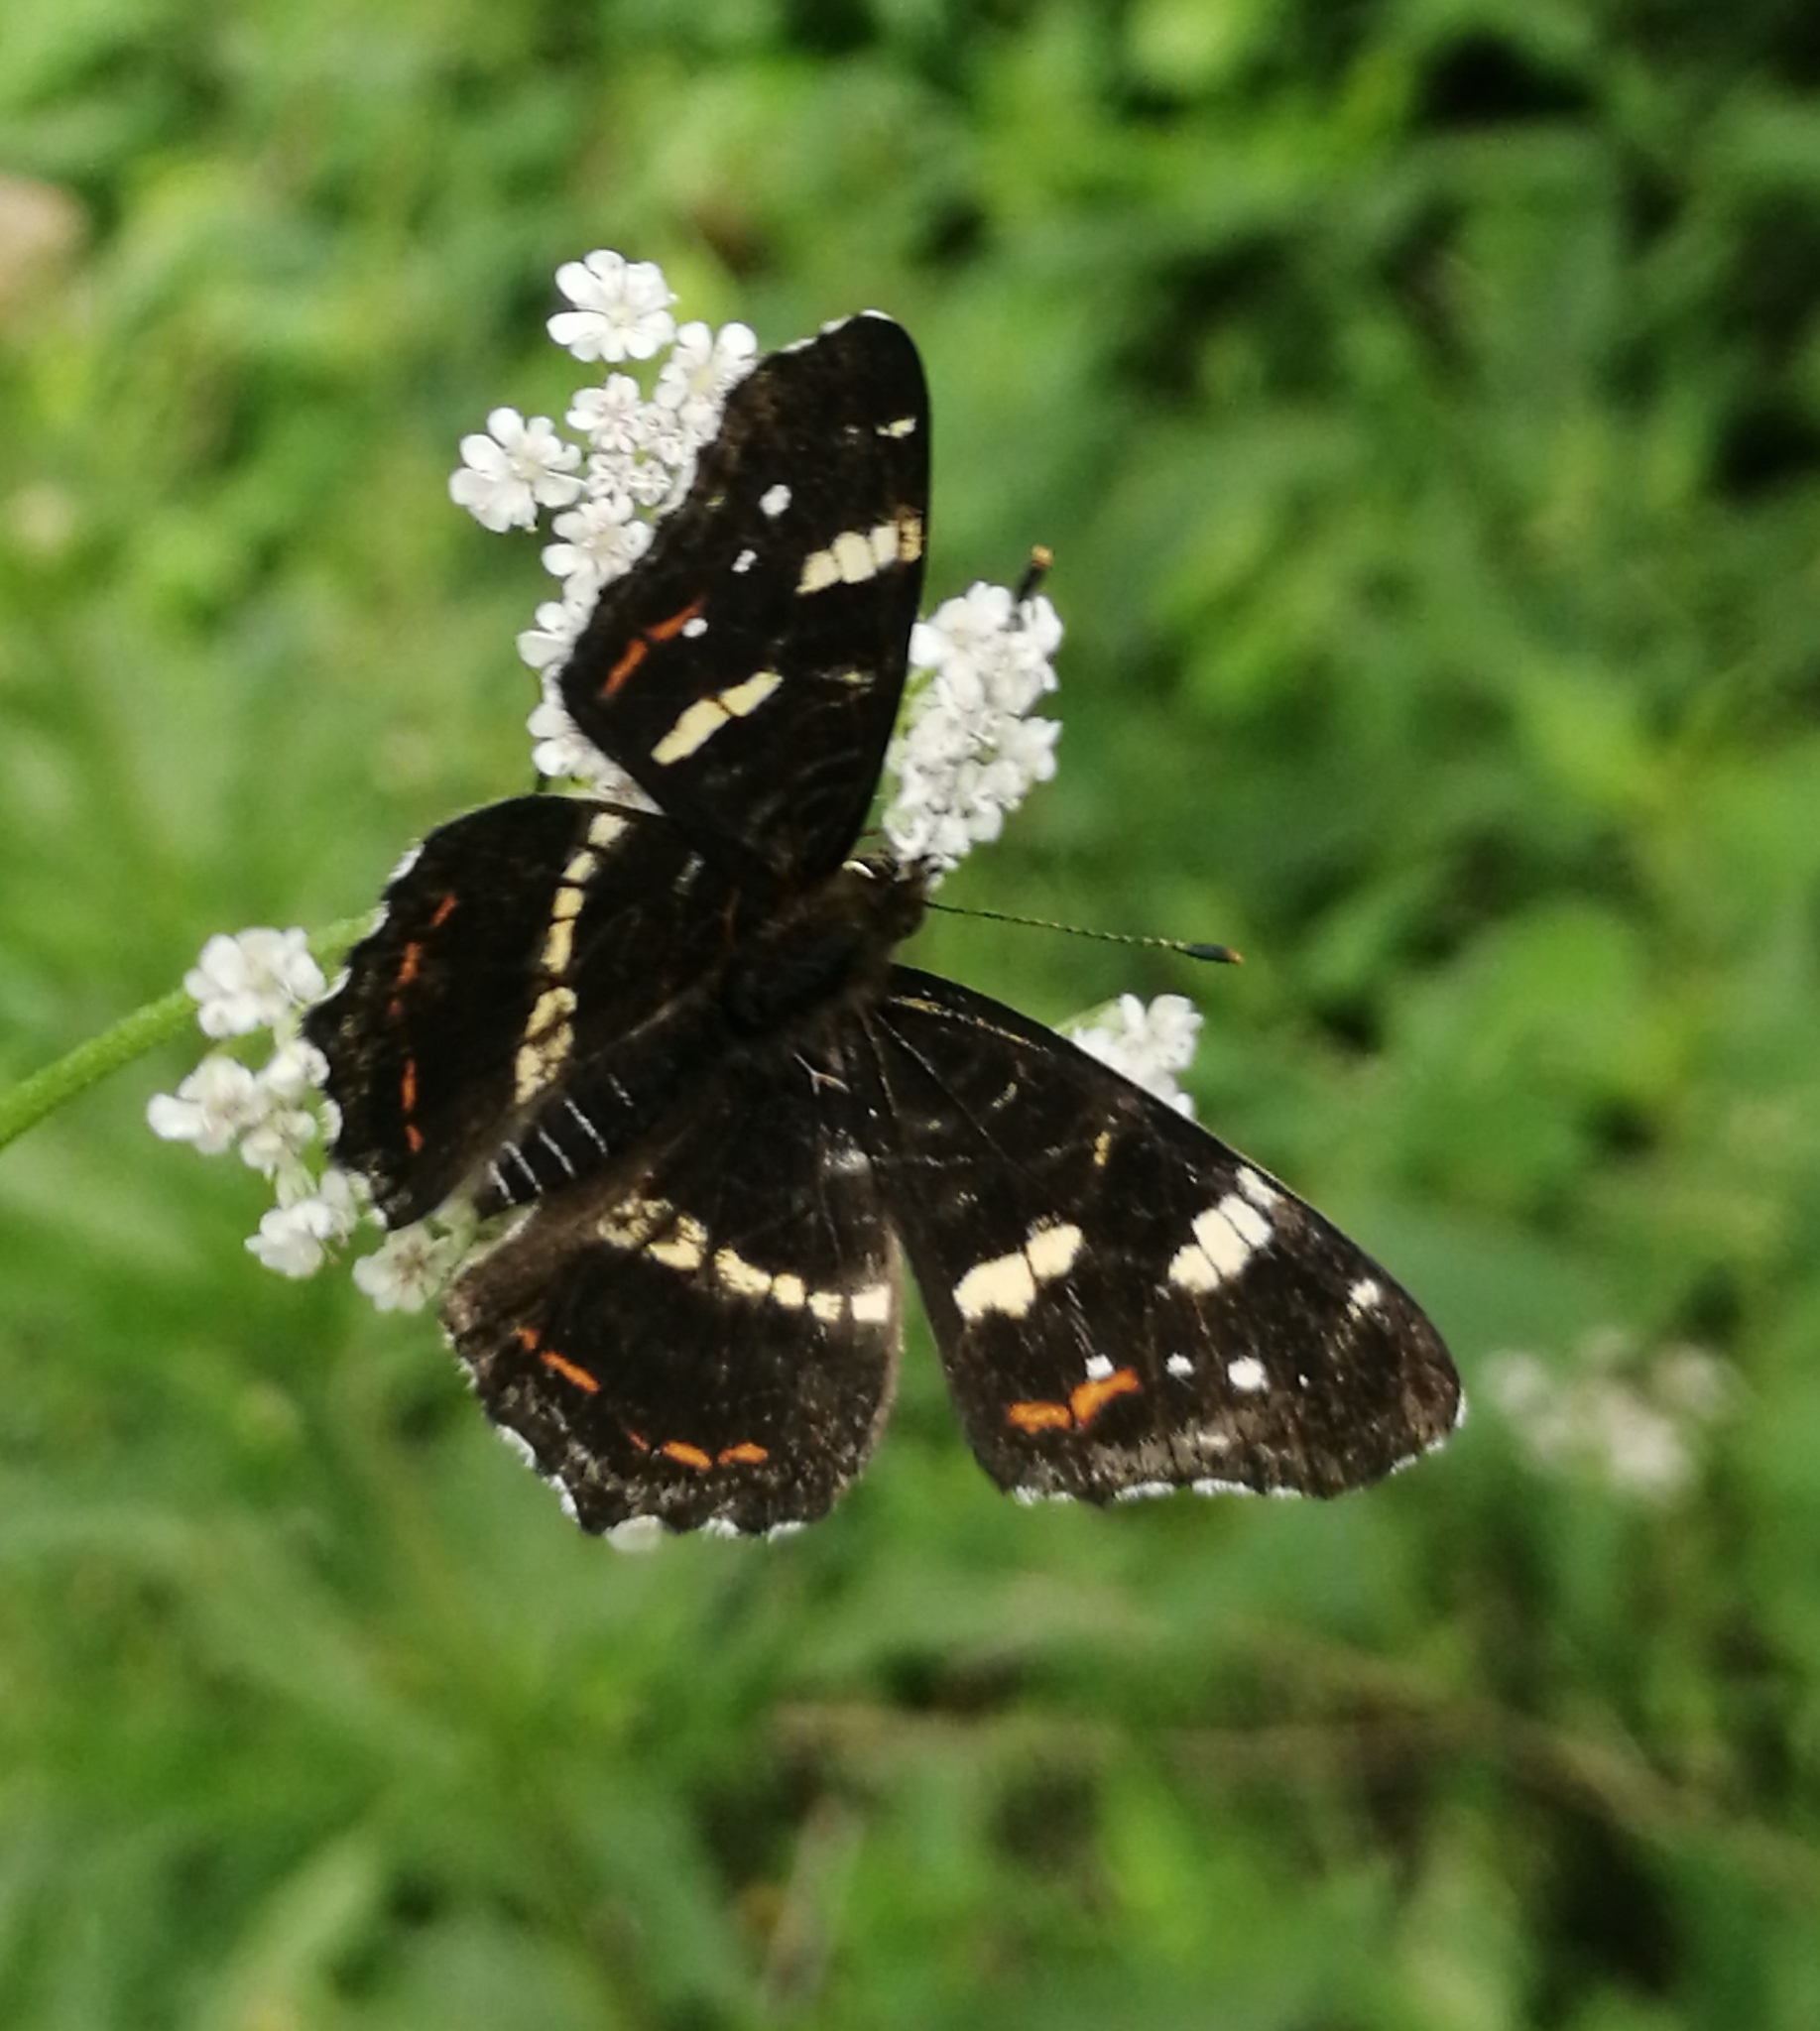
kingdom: Animalia
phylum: Arthropoda
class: Insecta
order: Lepidoptera
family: Nymphalidae
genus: Araschnia
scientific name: Araschnia levana
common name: Map butterfly
